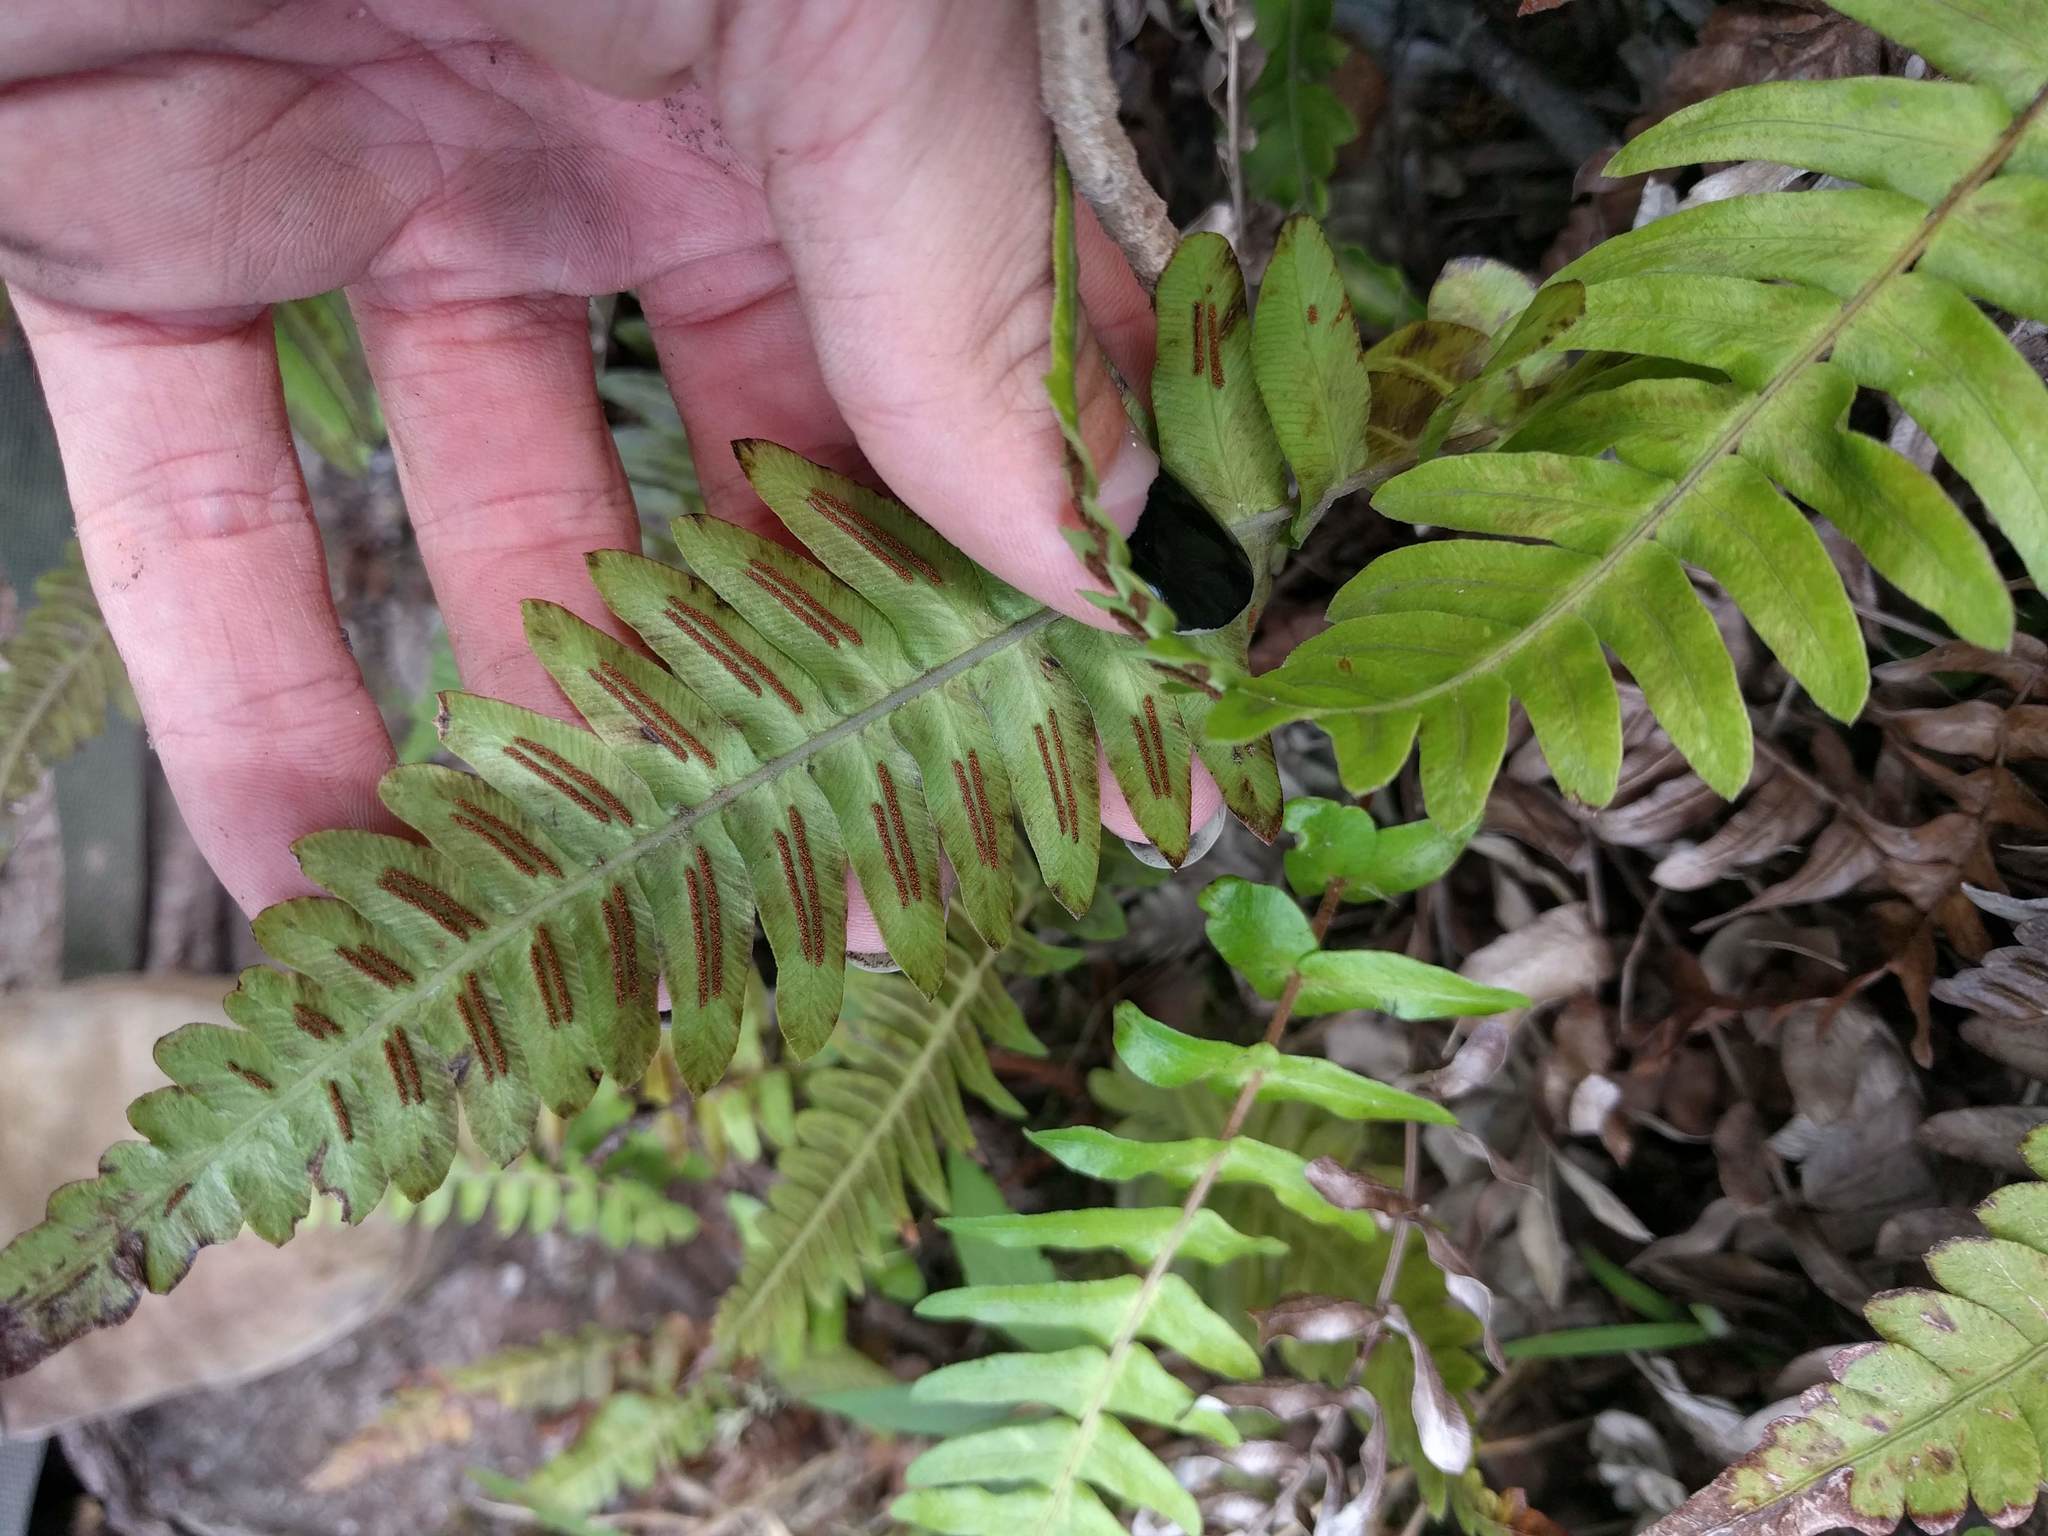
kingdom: Plantae
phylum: Tracheophyta
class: Polypodiopsida
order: Polypodiales
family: Blechnaceae
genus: Blechnum
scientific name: Blechnum appendiculatum
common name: Palm fern
